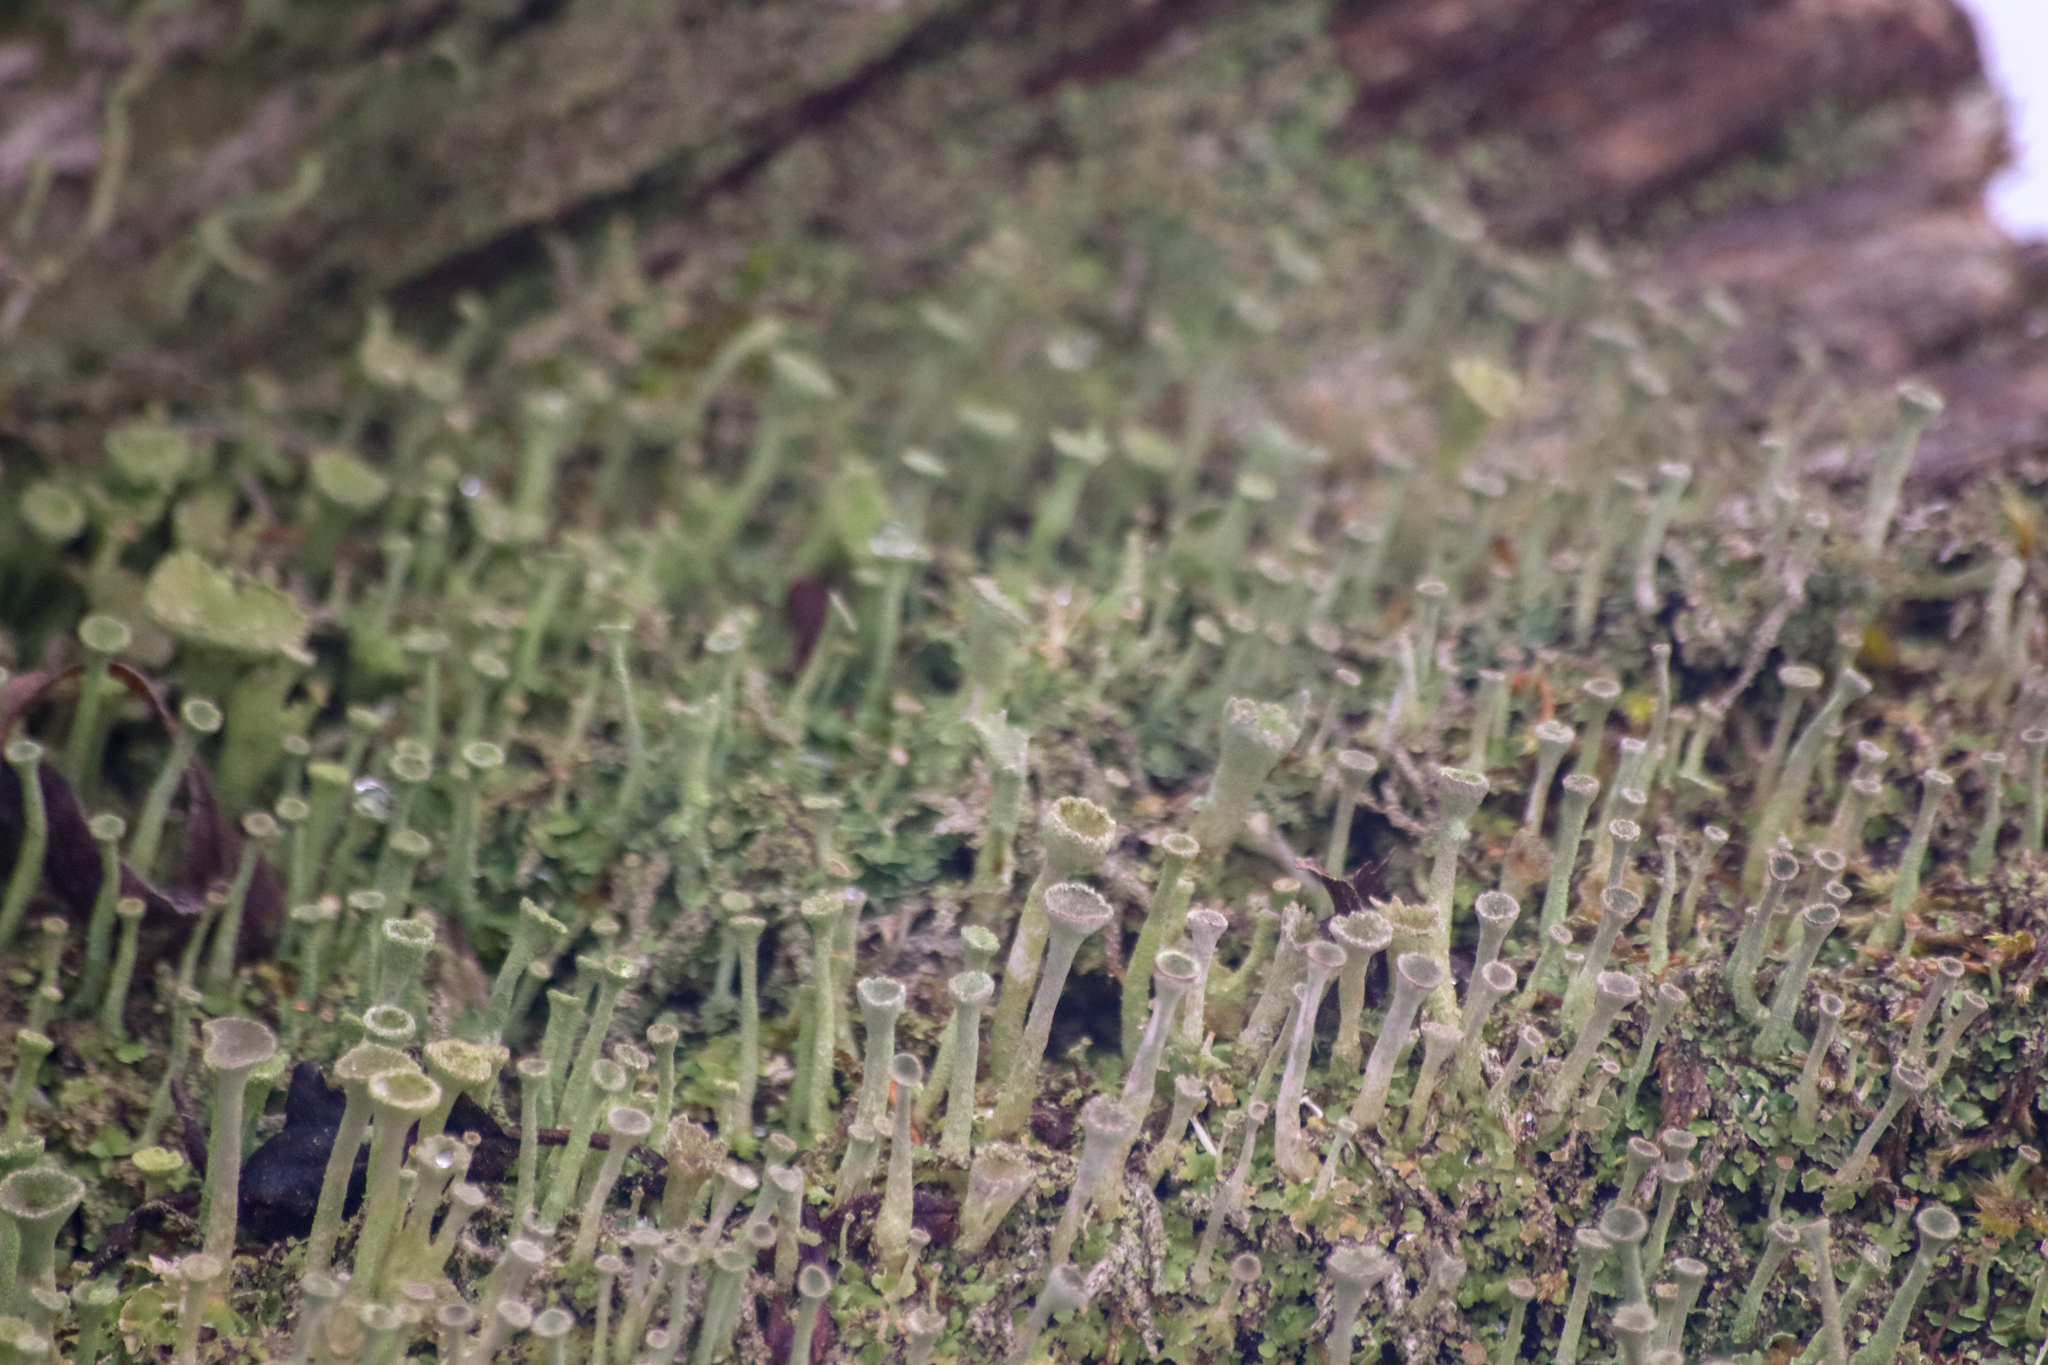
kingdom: Fungi
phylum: Ascomycota
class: Lecanoromycetes
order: Lecanorales
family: Cladoniaceae
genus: Cladonia
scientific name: Cladonia fimbriata
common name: Powdered trumpet lichen
